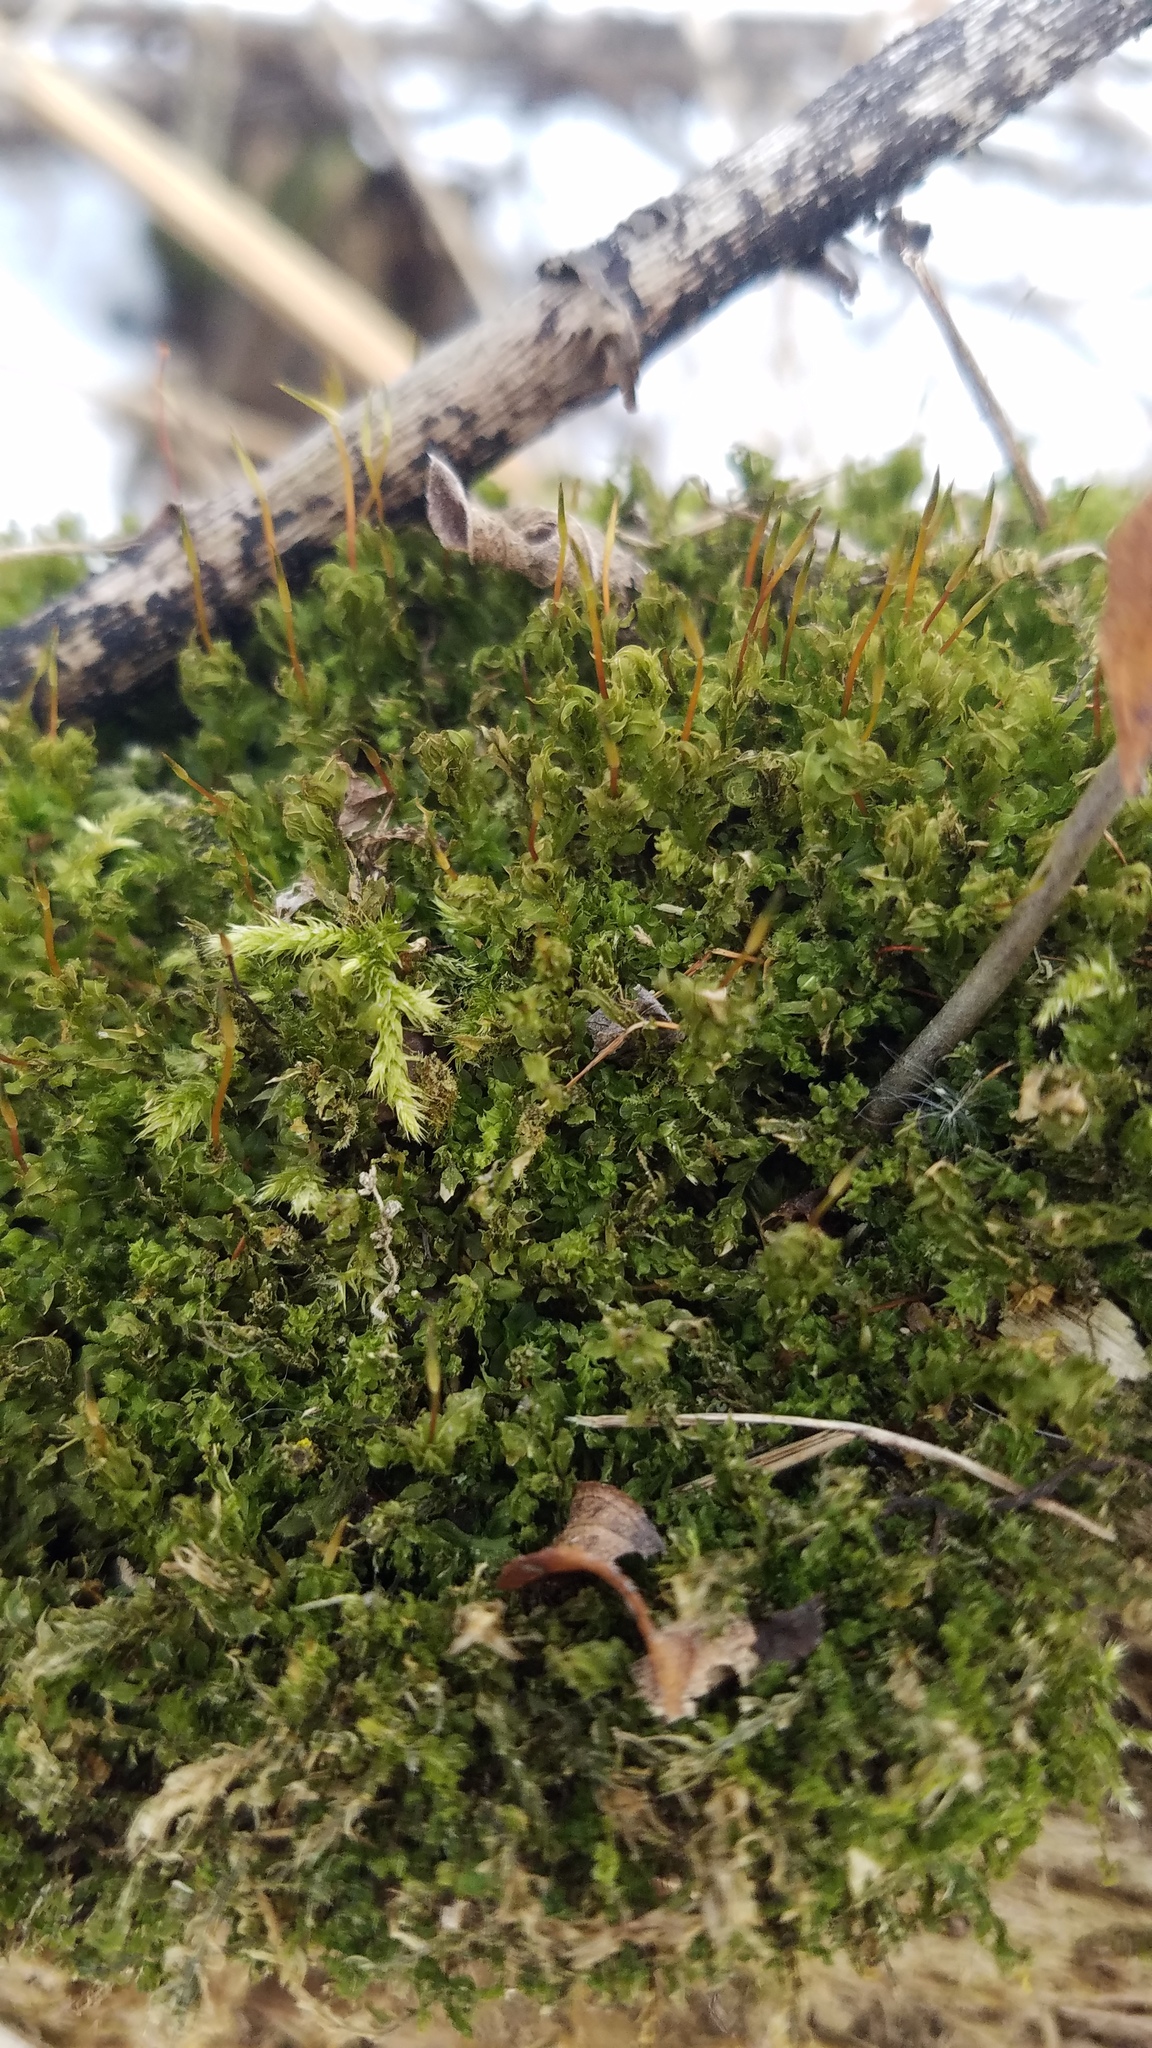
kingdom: Plantae
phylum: Bryophyta
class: Bryopsida
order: Bryales
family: Mniaceae
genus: Plagiomnium
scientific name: Plagiomnium cuspidatum
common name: Woodsy leafy moss
